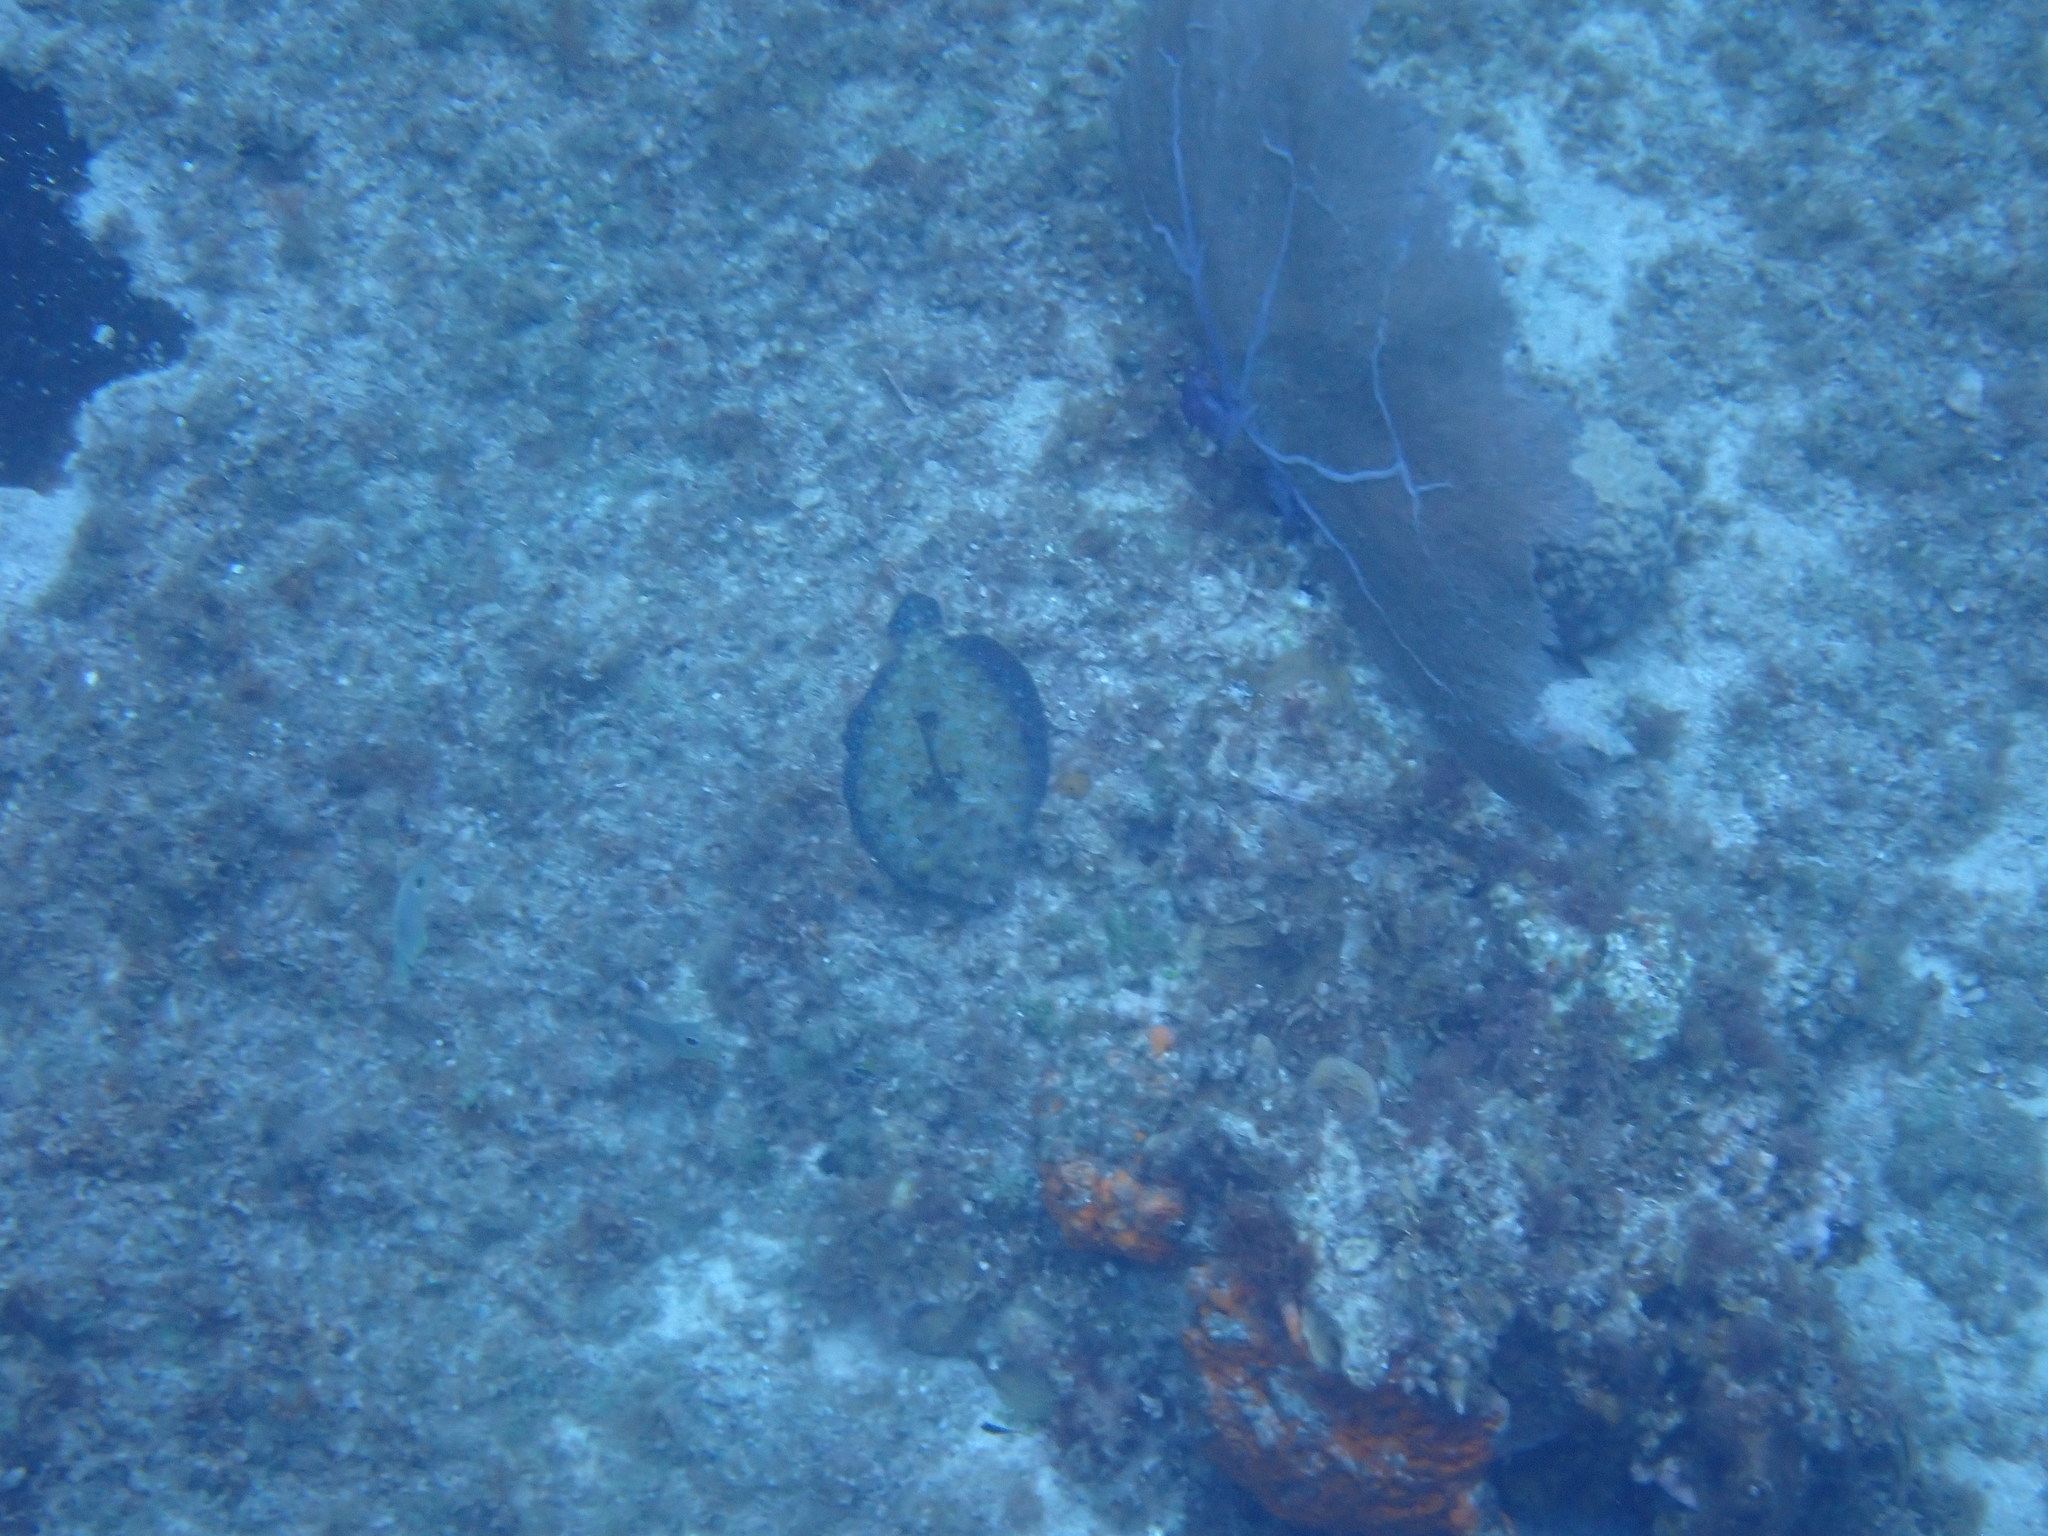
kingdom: Animalia
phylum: Chordata
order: Pleuronectiformes
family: Bothidae
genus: Bothus
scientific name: Bothus lunatus
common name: Peacock flounder
